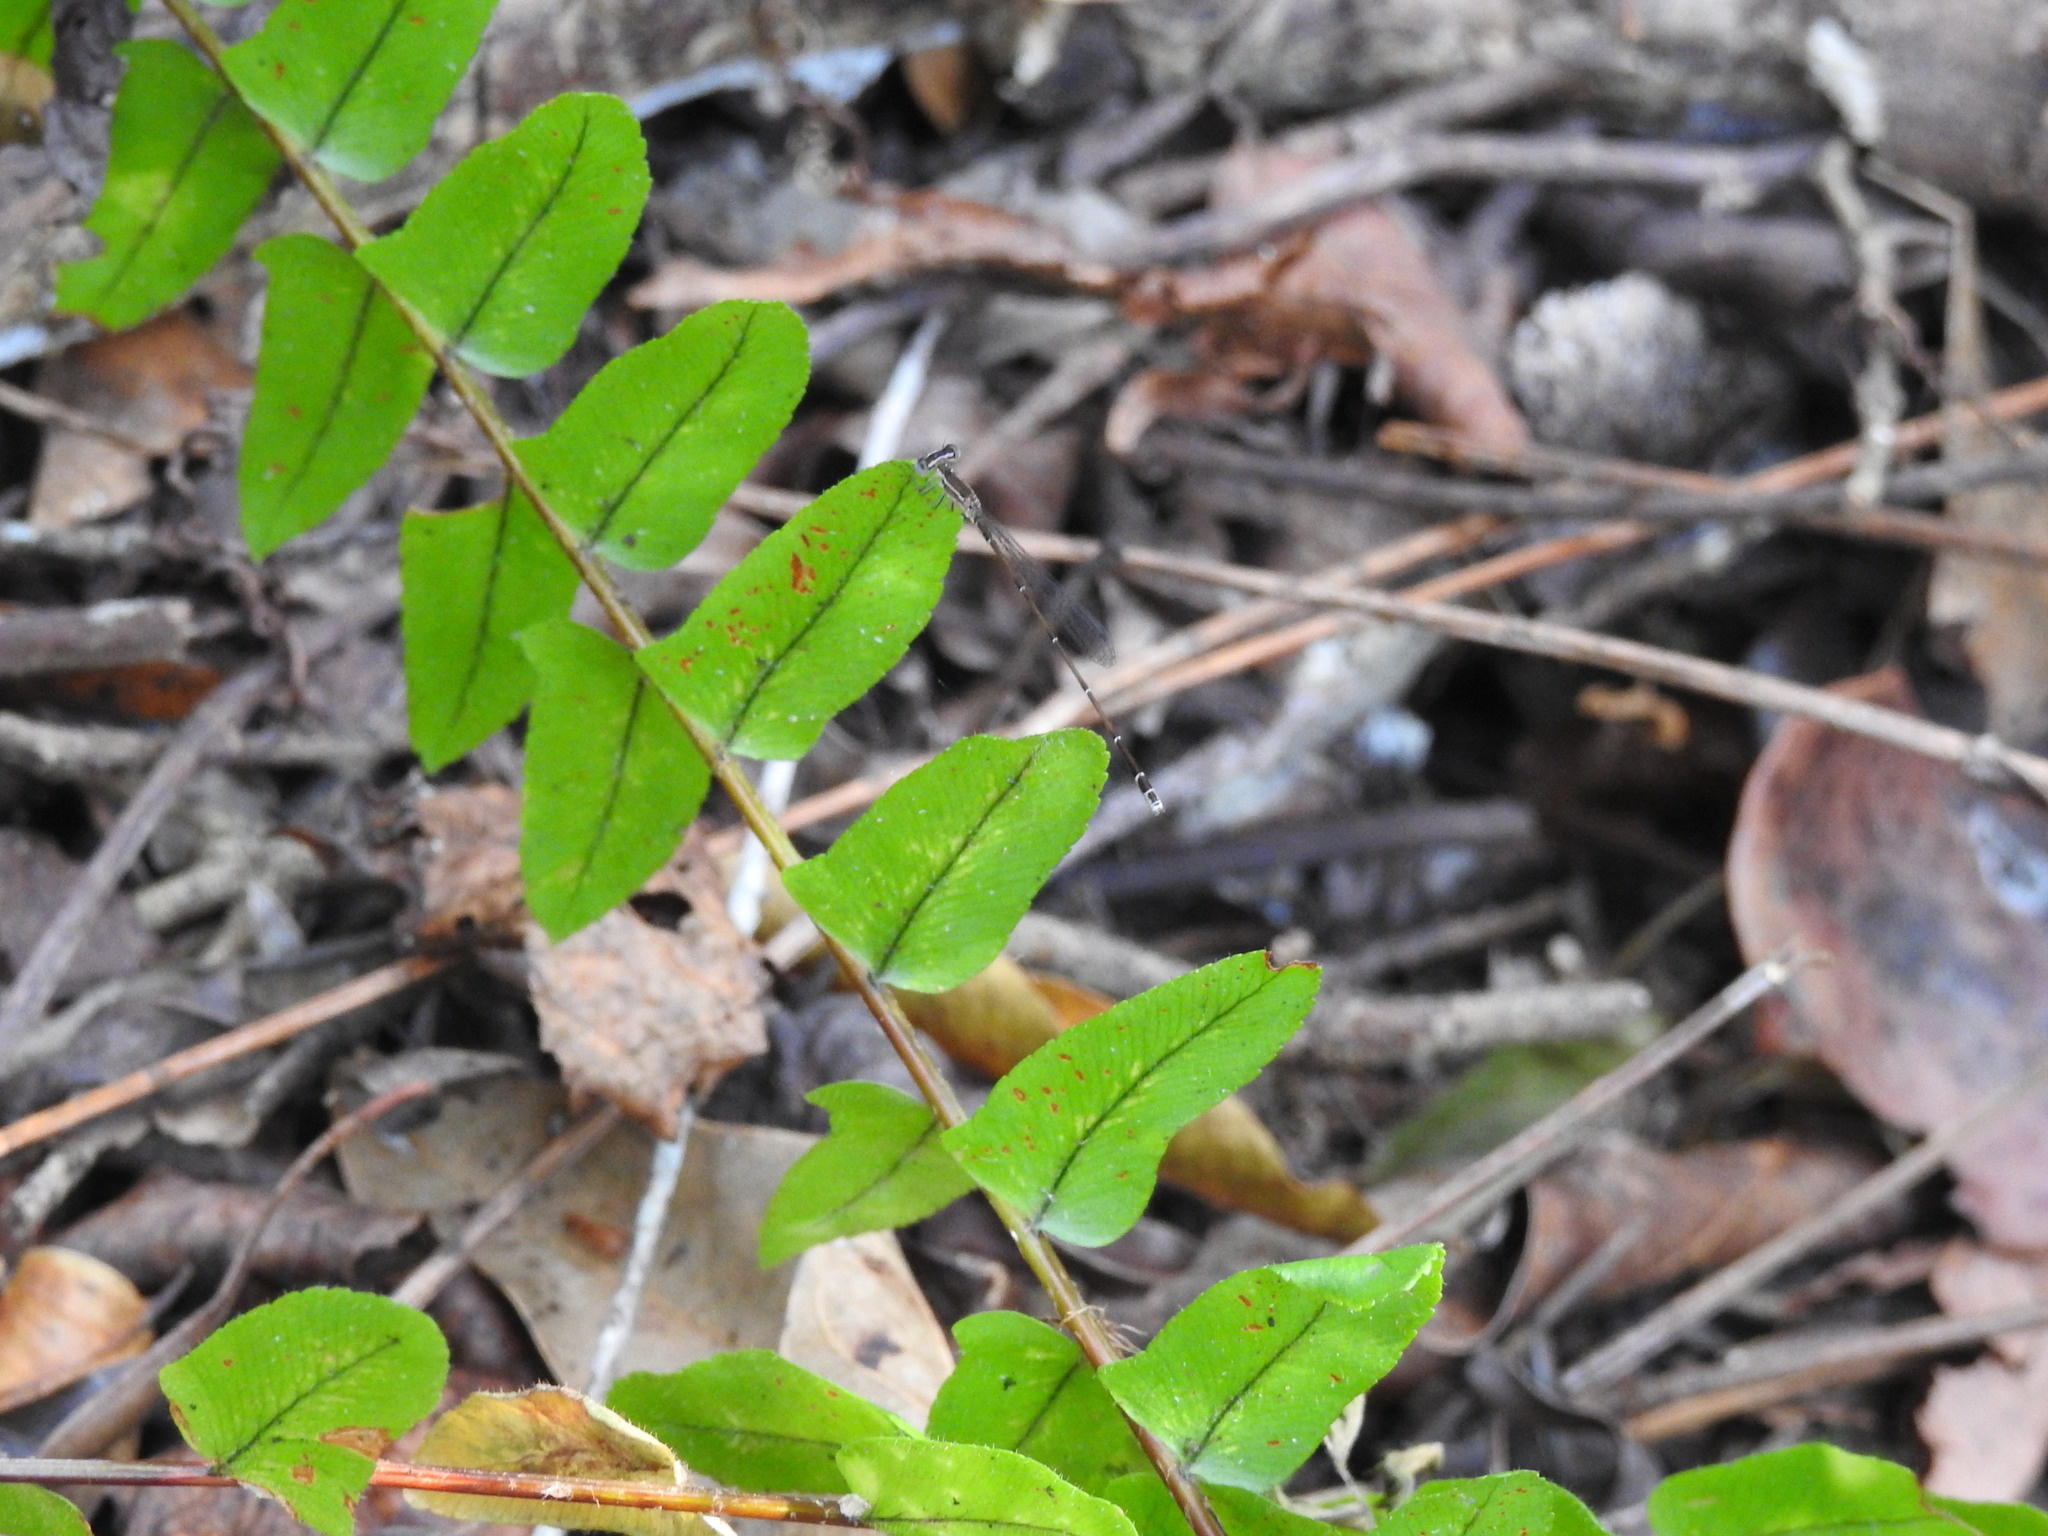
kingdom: Animalia
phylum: Arthropoda
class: Insecta
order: Odonata
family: Coenagrionidae
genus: Nehalennia
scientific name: Nehalennia pallidula
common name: Everglades sprite
